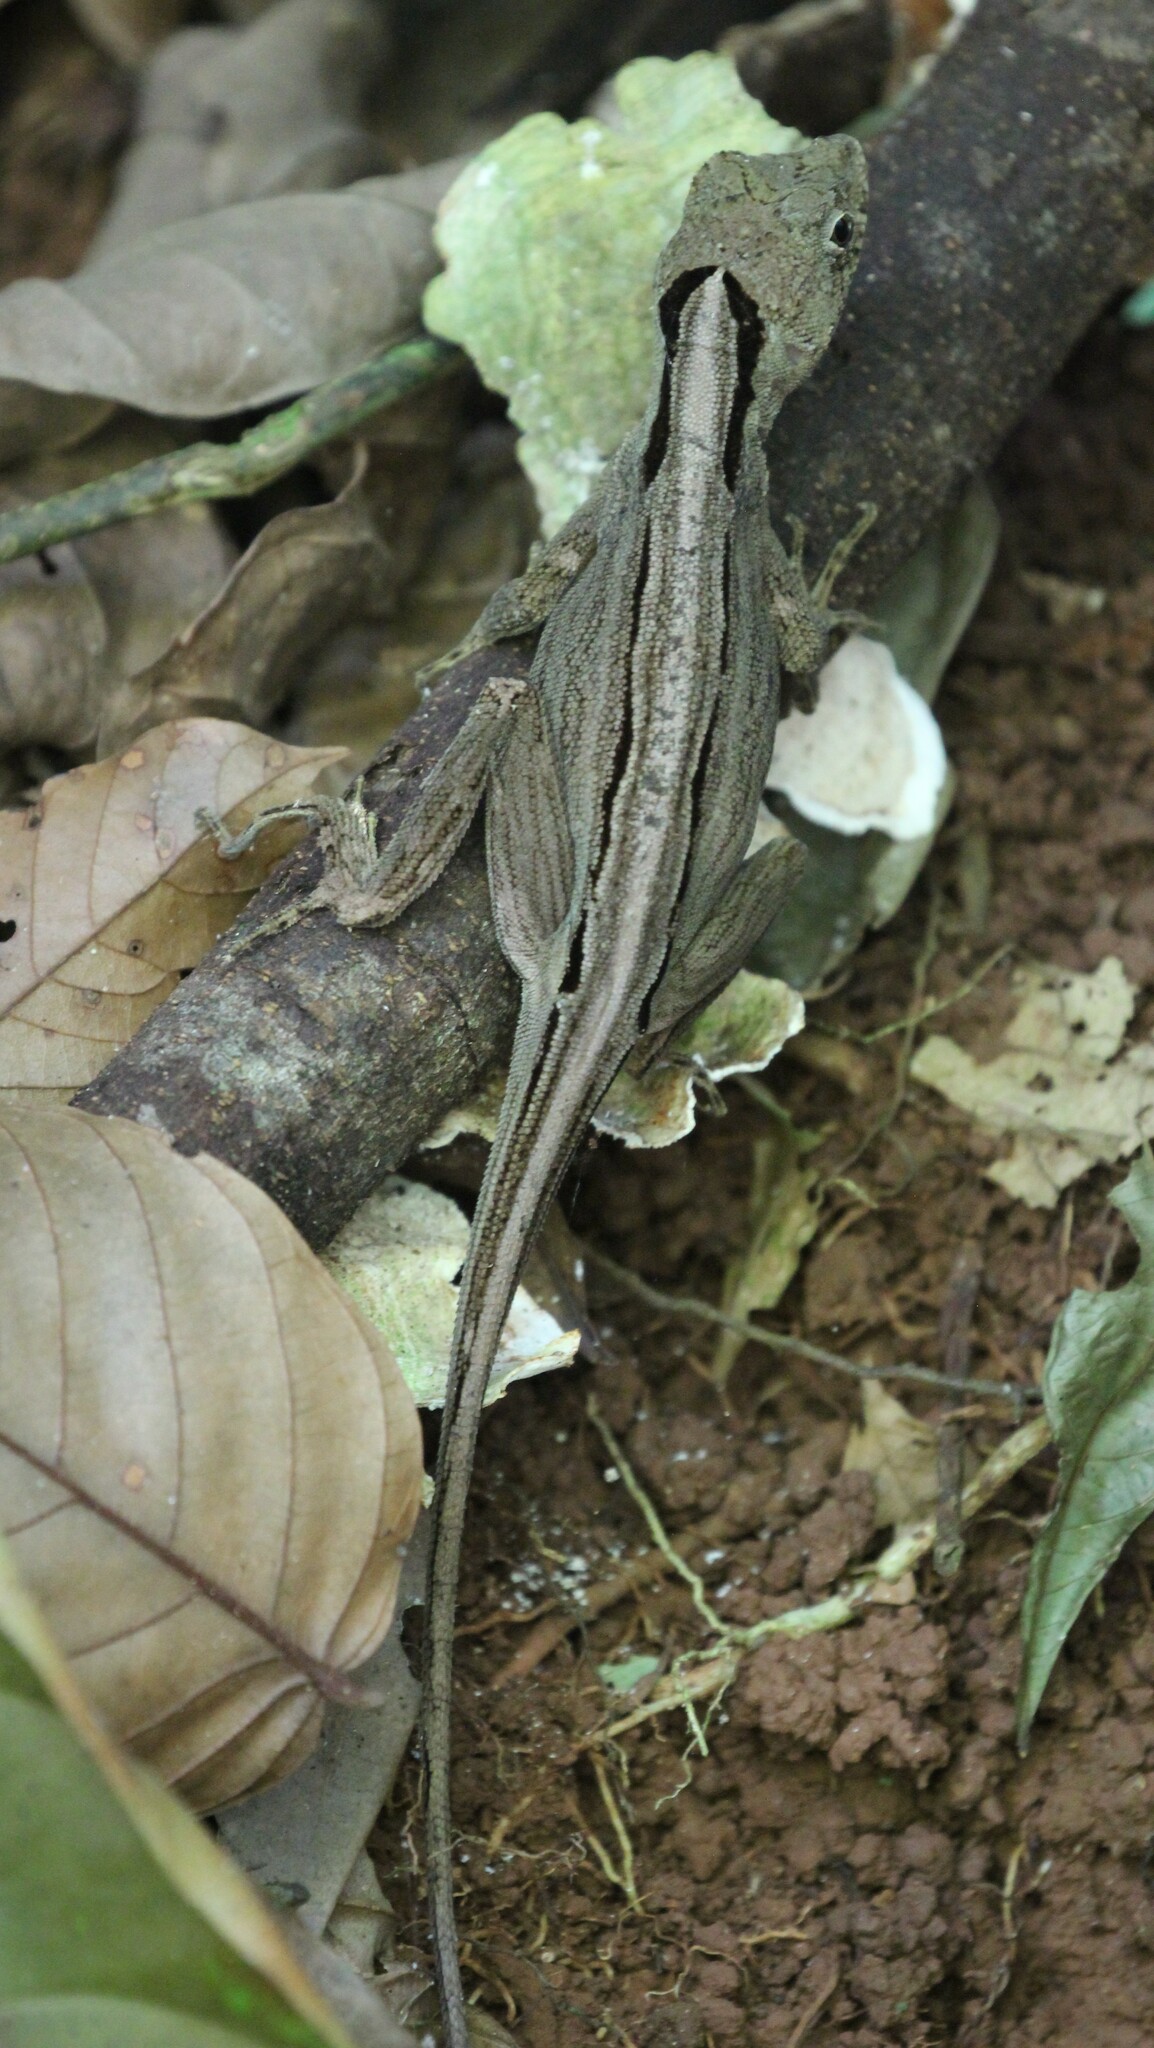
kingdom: Animalia
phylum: Chordata
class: Squamata
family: Dactyloidae
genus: Anolis
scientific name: Anolis capito
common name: Bighead anole
